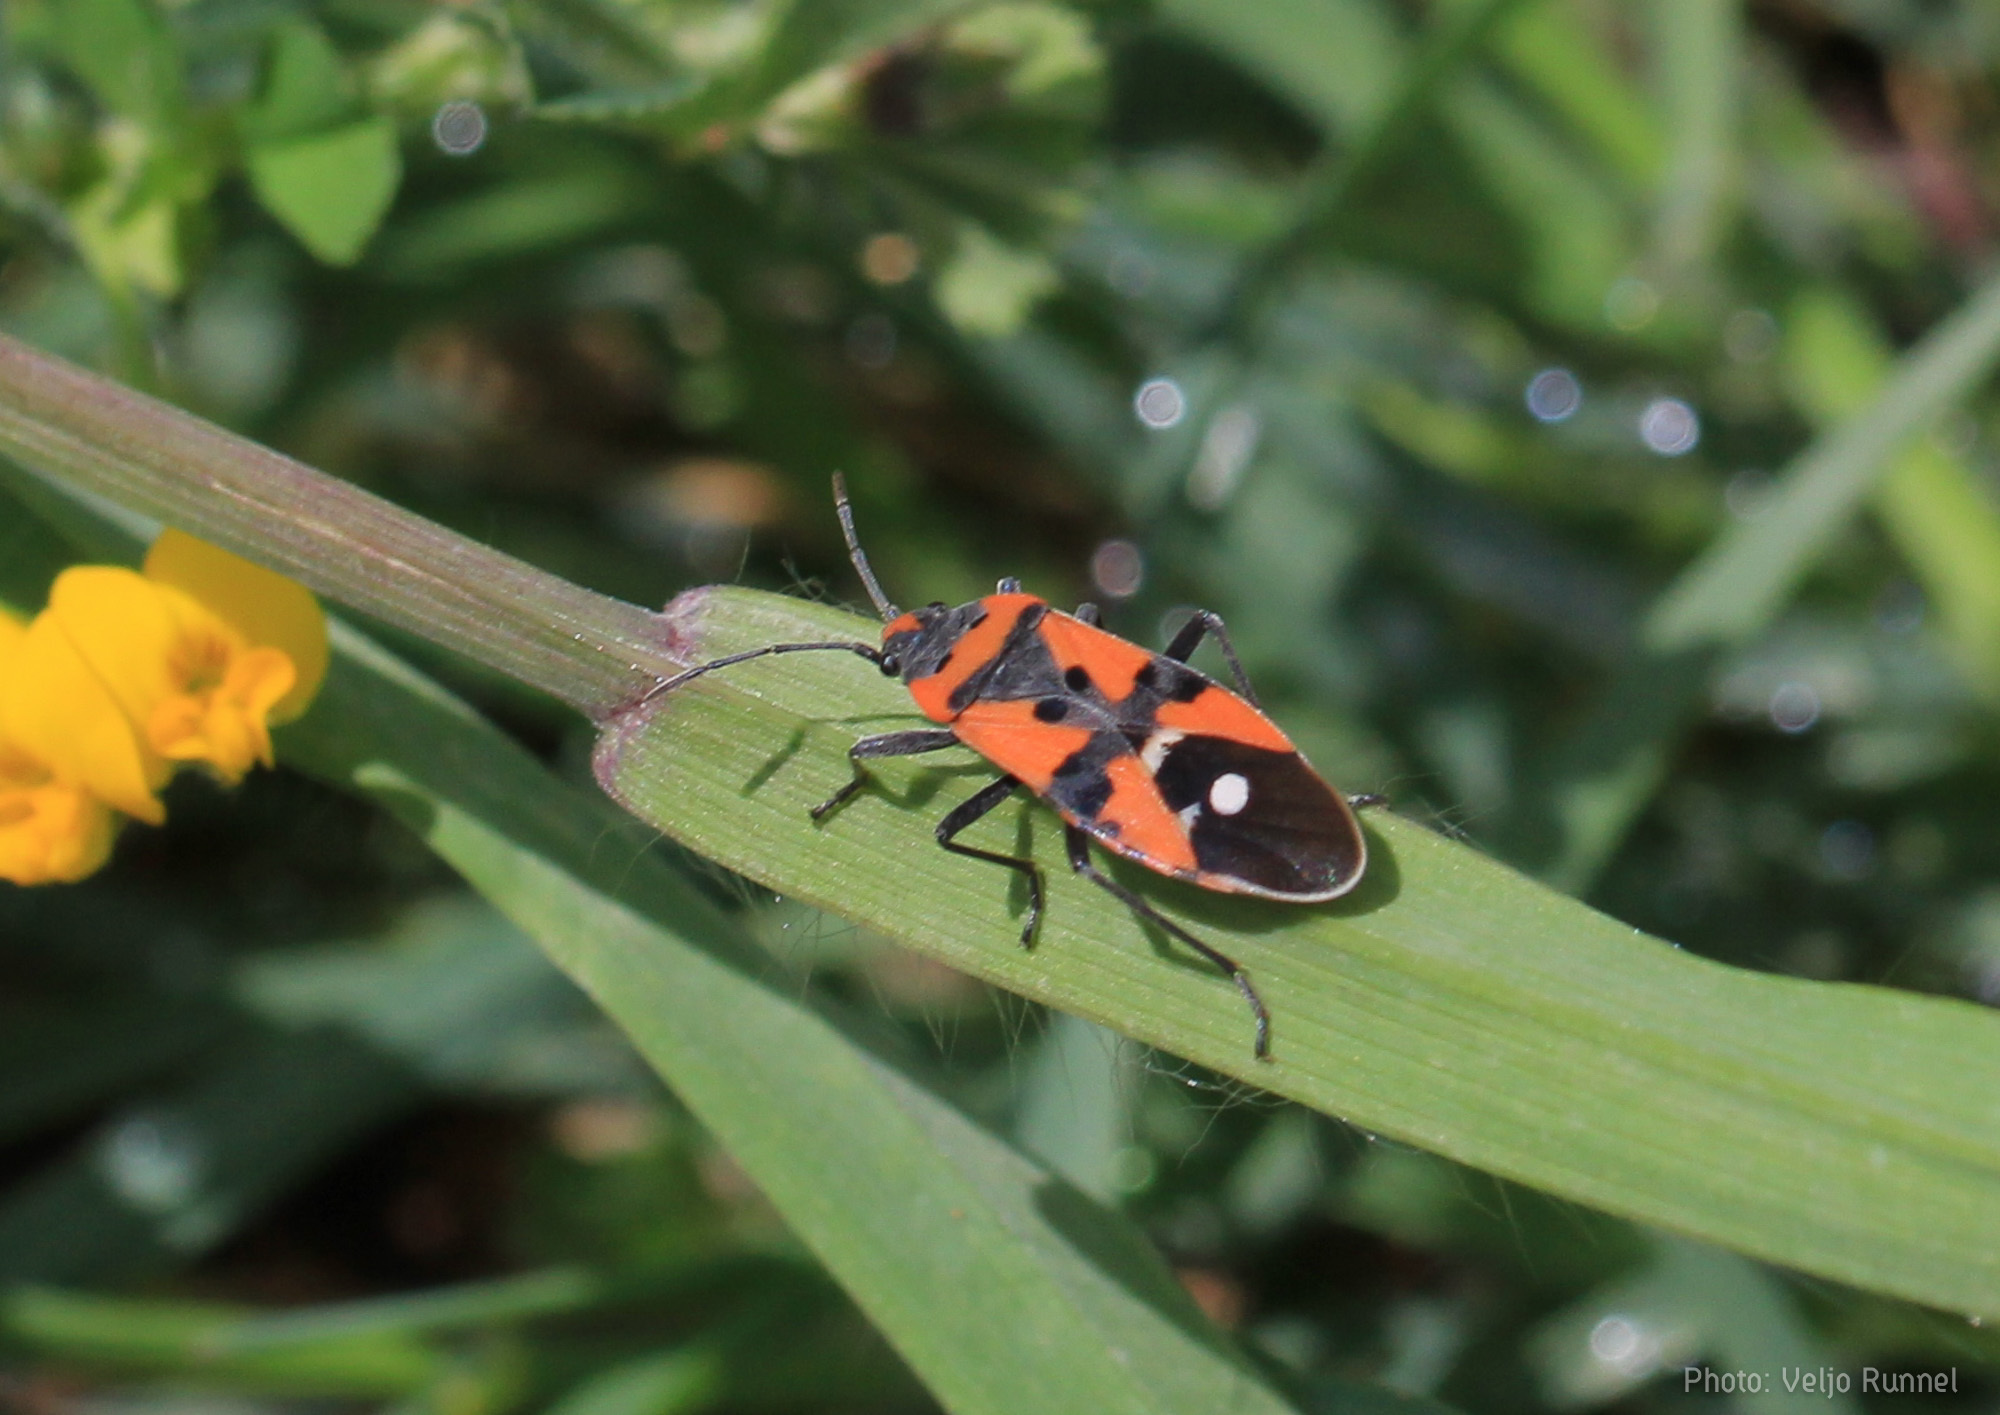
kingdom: Animalia
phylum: Arthropoda
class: Insecta
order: Hemiptera
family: Lygaeidae
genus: Lygaeus
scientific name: Lygaeus equestris
